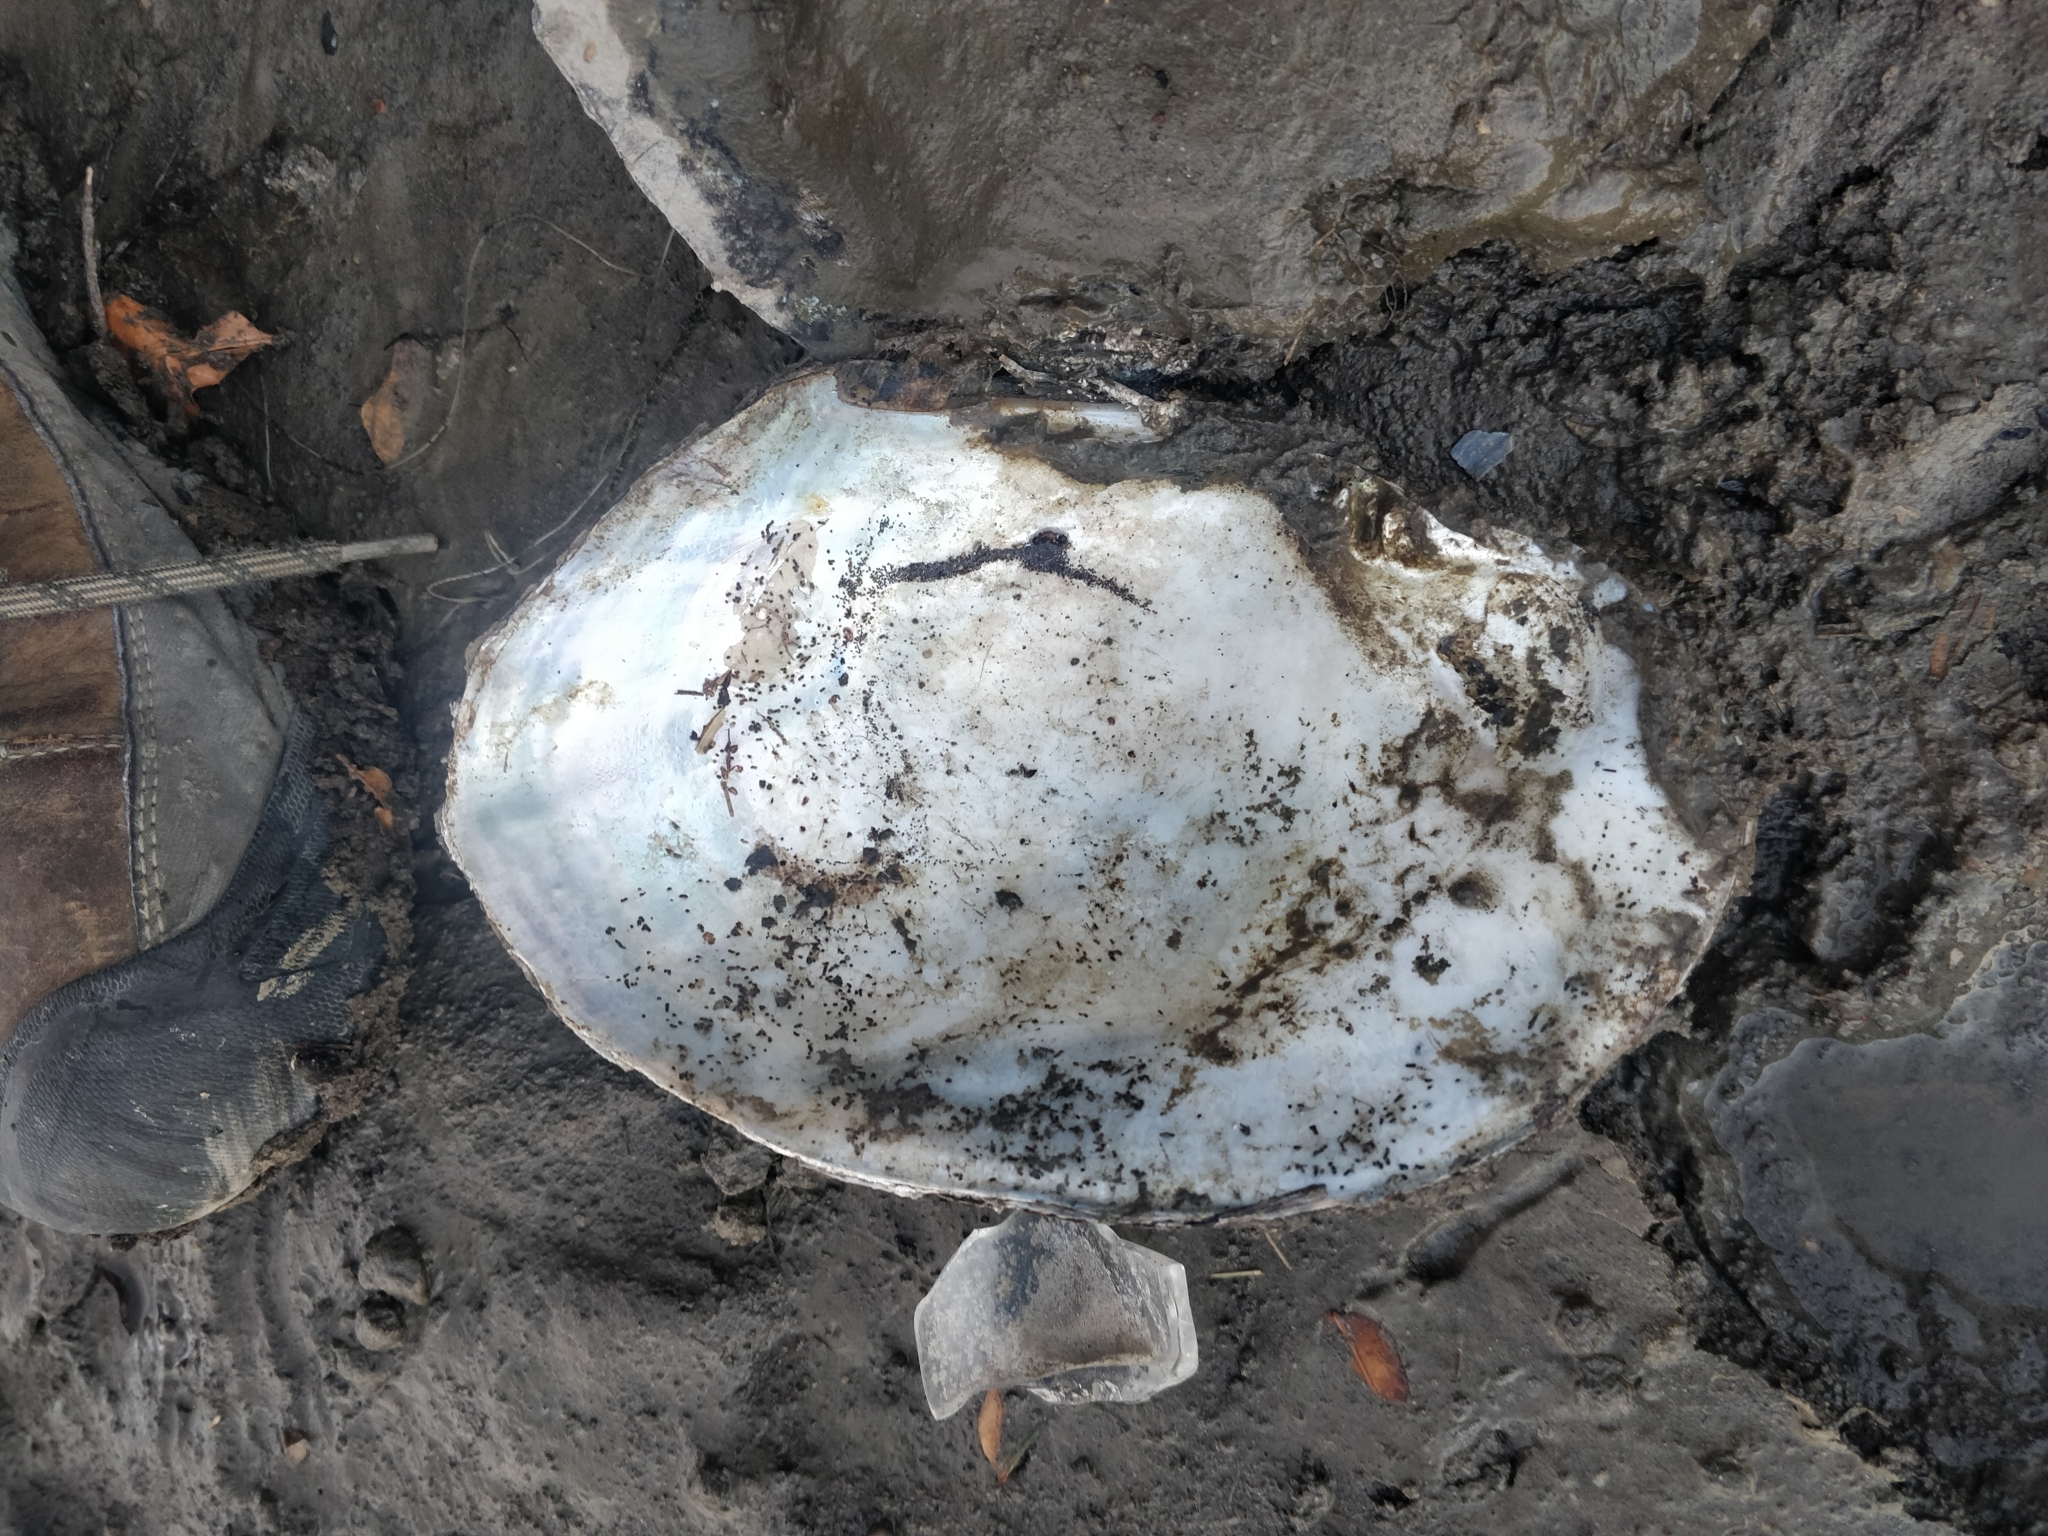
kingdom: Animalia
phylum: Mollusca
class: Bivalvia
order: Unionida
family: Unionidae
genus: Lasmigona
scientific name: Lasmigona complanata
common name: White heelsplitter
